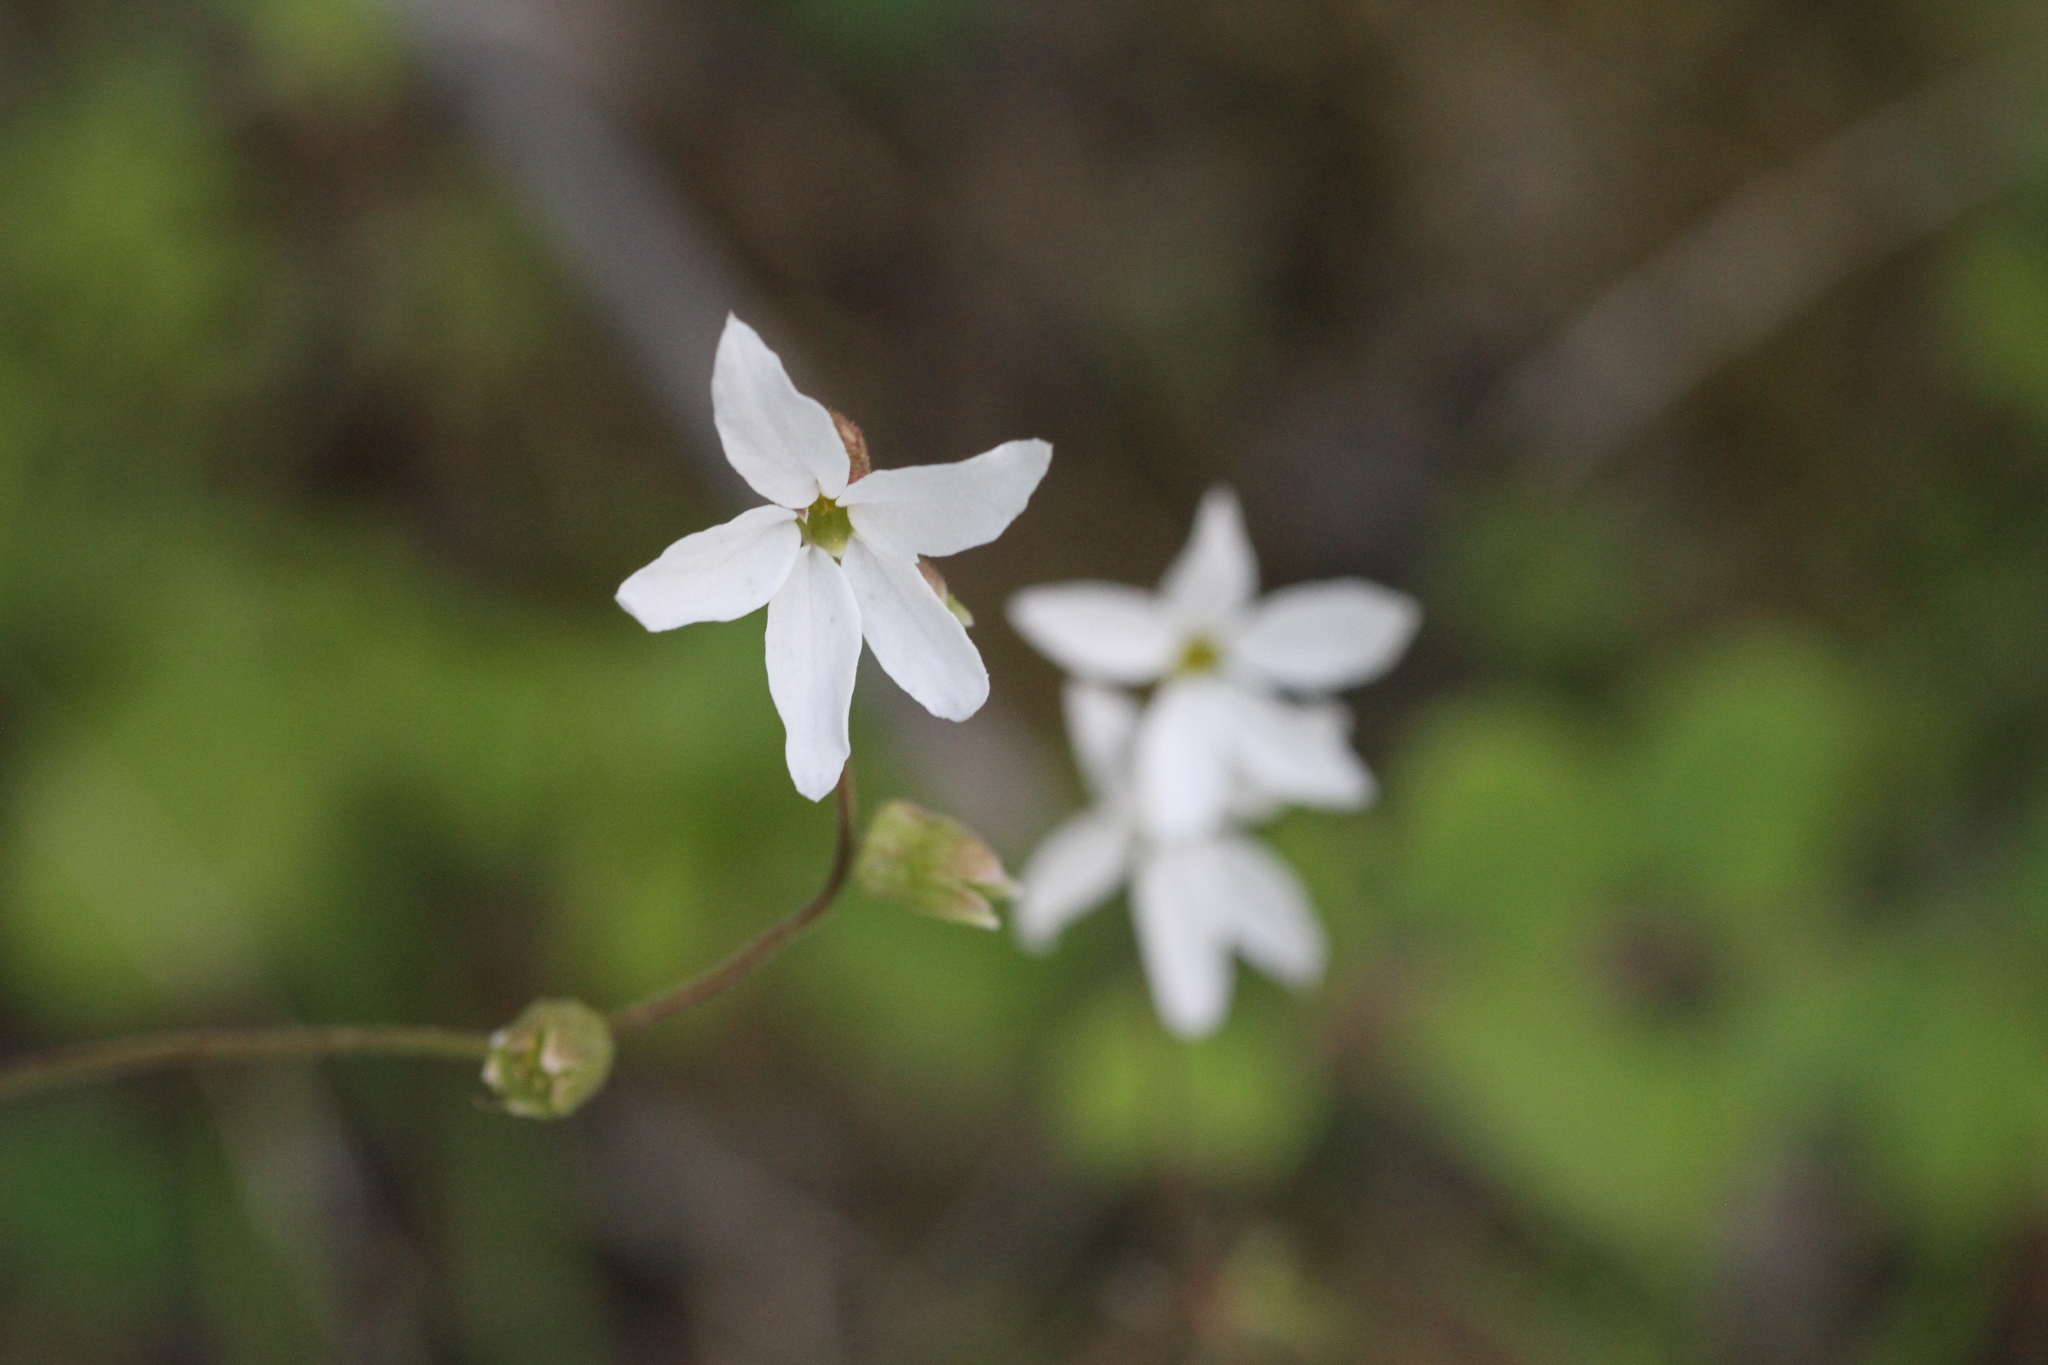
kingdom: Plantae
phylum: Tracheophyta
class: Magnoliopsida
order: Saxifragales
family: Saxifragaceae
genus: Lithophragma
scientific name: Lithophragma heterophyllum
